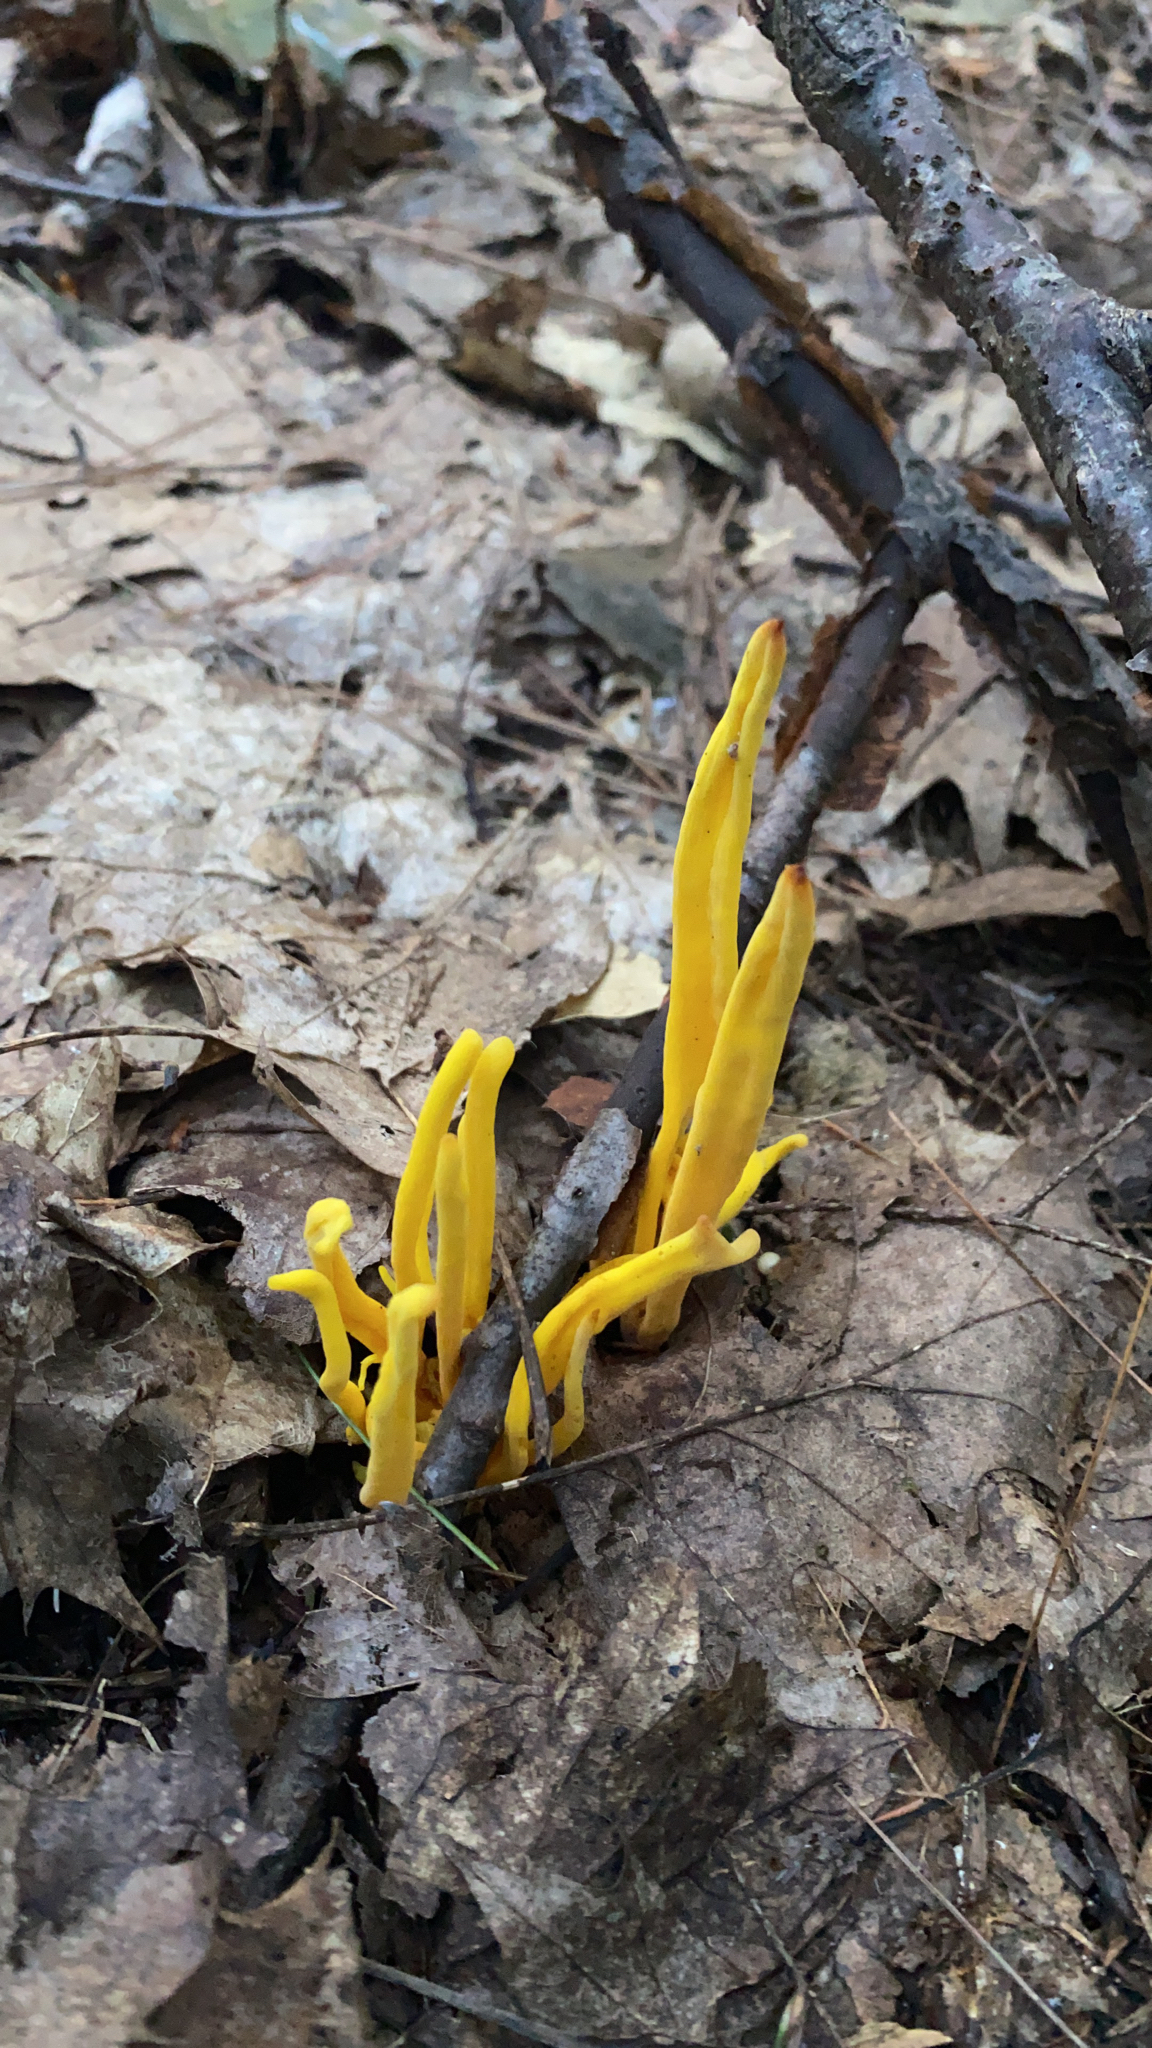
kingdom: Fungi
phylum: Basidiomycota
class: Agaricomycetes
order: Agaricales
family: Clavariaceae
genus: Clavulinopsis
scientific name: Clavulinopsis fusiformis
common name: Golden spindles
